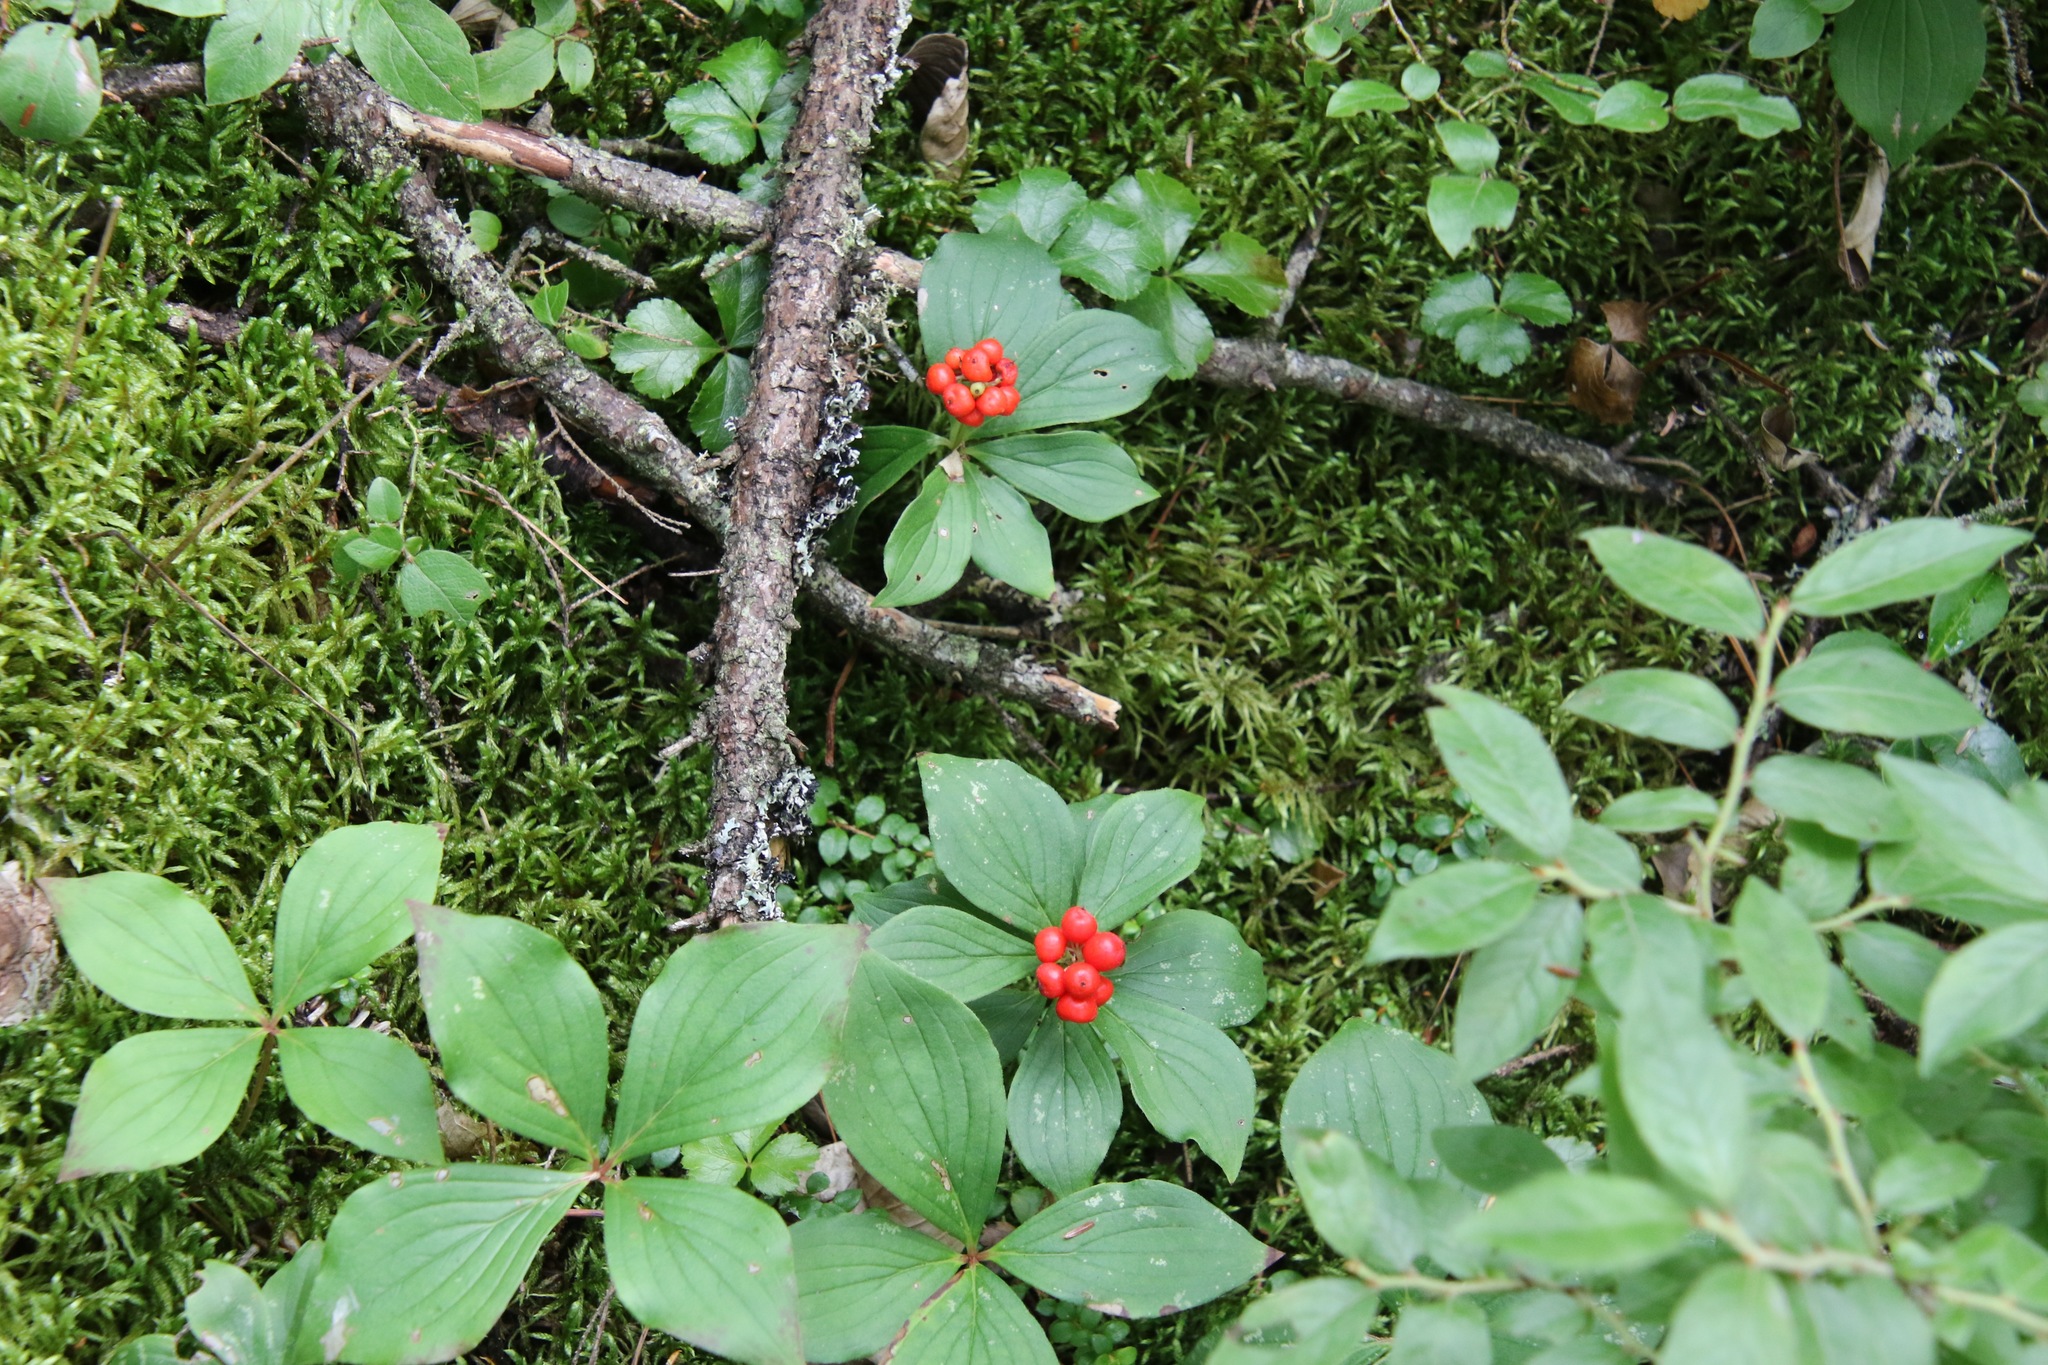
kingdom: Plantae
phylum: Tracheophyta
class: Magnoliopsida
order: Cornales
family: Cornaceae
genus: Cornus
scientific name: Cornus canadensis
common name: Creeping dogwood
